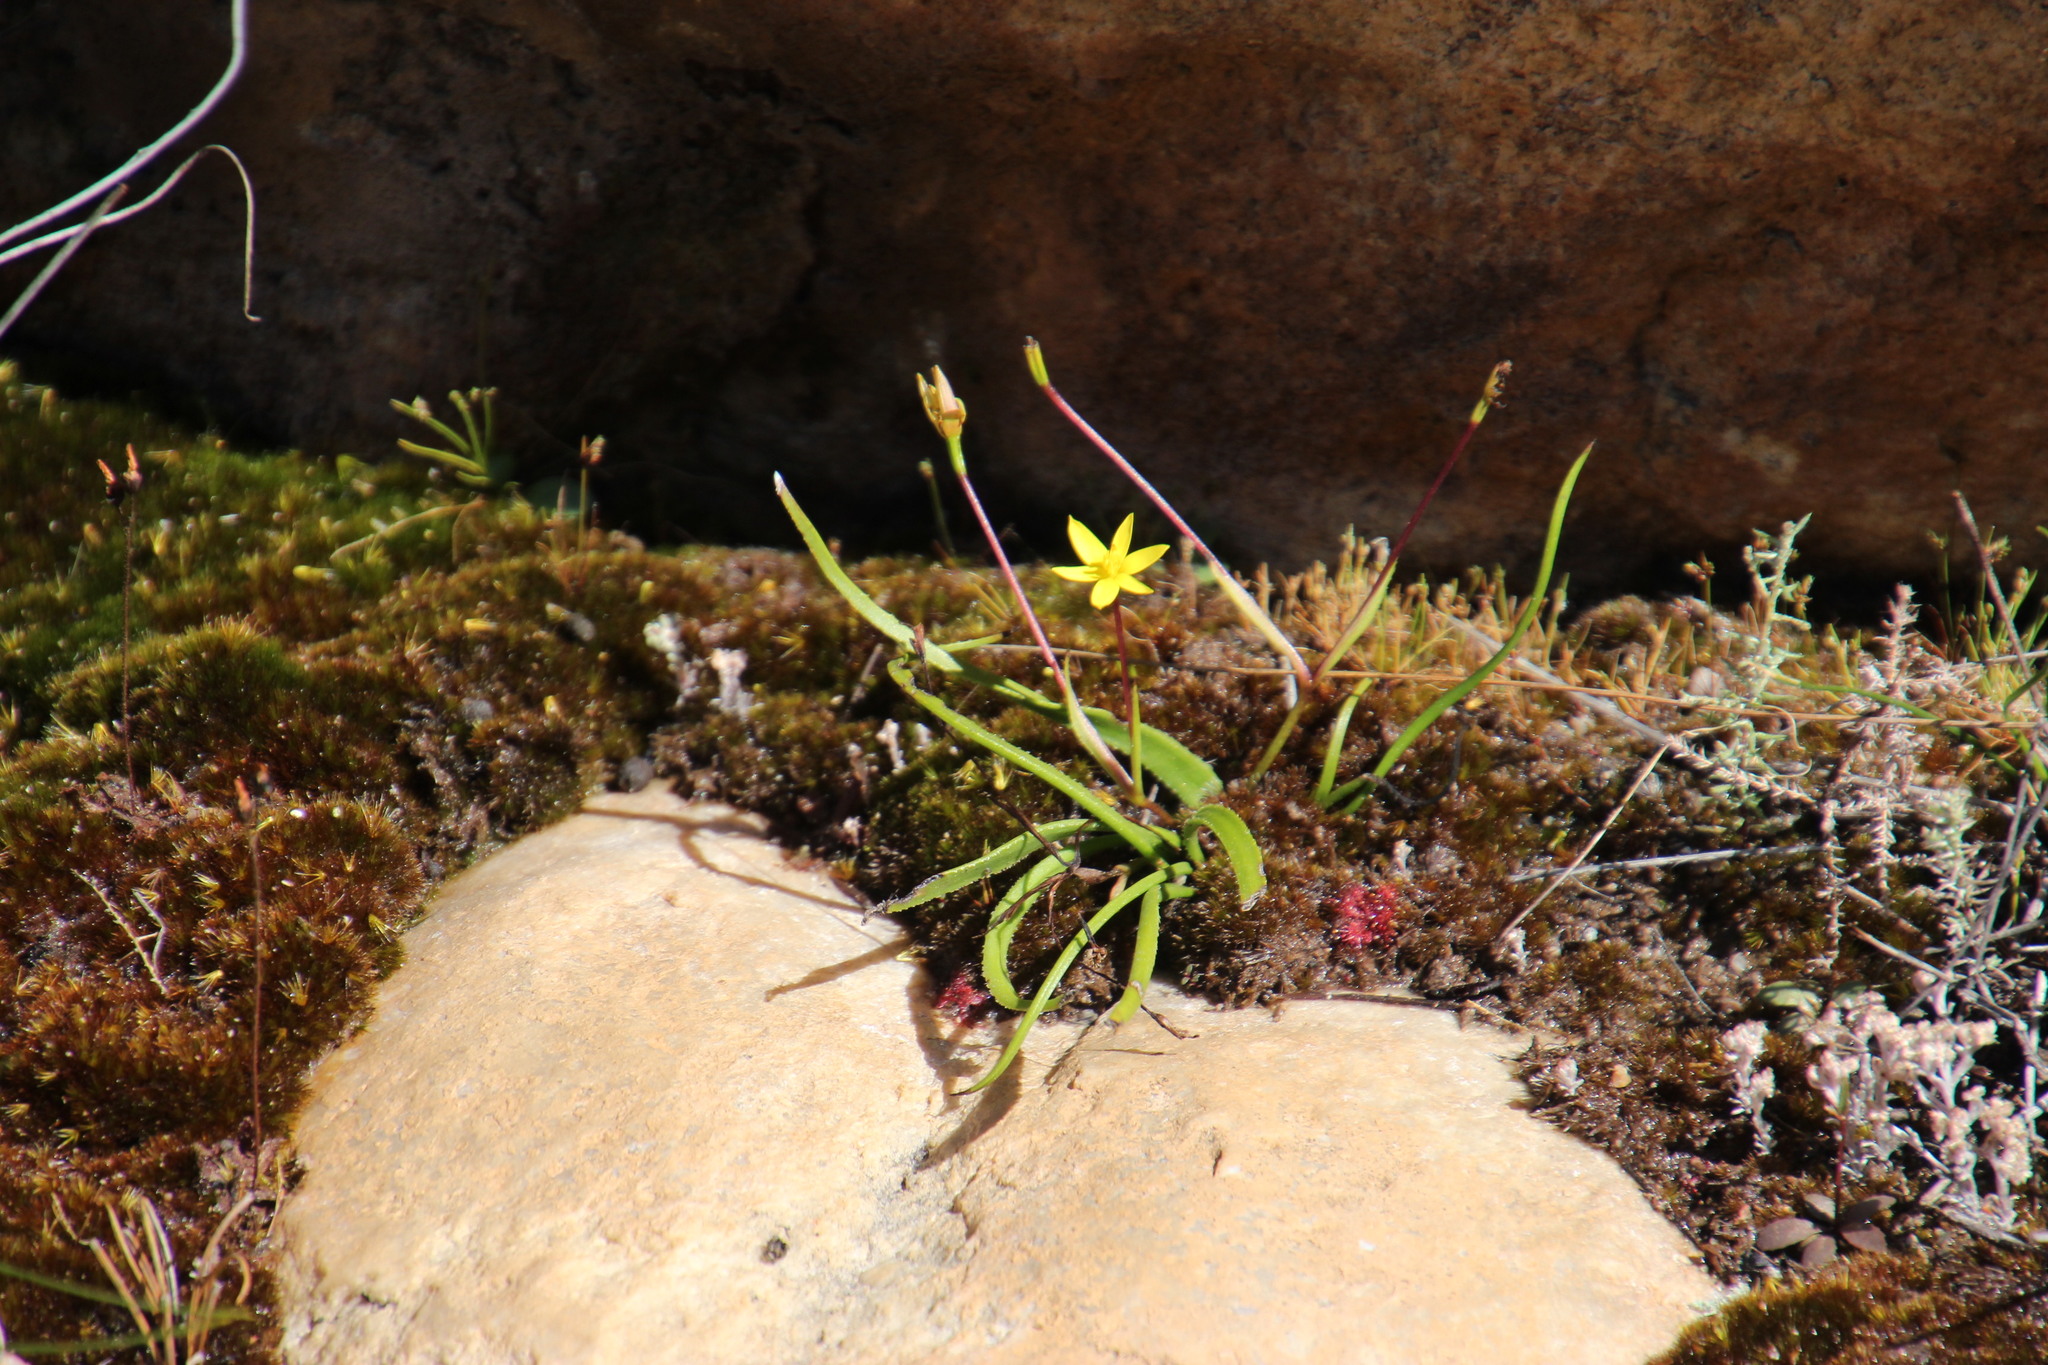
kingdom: Plantae
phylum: Tracheophyta
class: Liliopsida
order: Asparagales
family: Hypoxidaceae
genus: Pauridia
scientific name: Pauridia monticola
